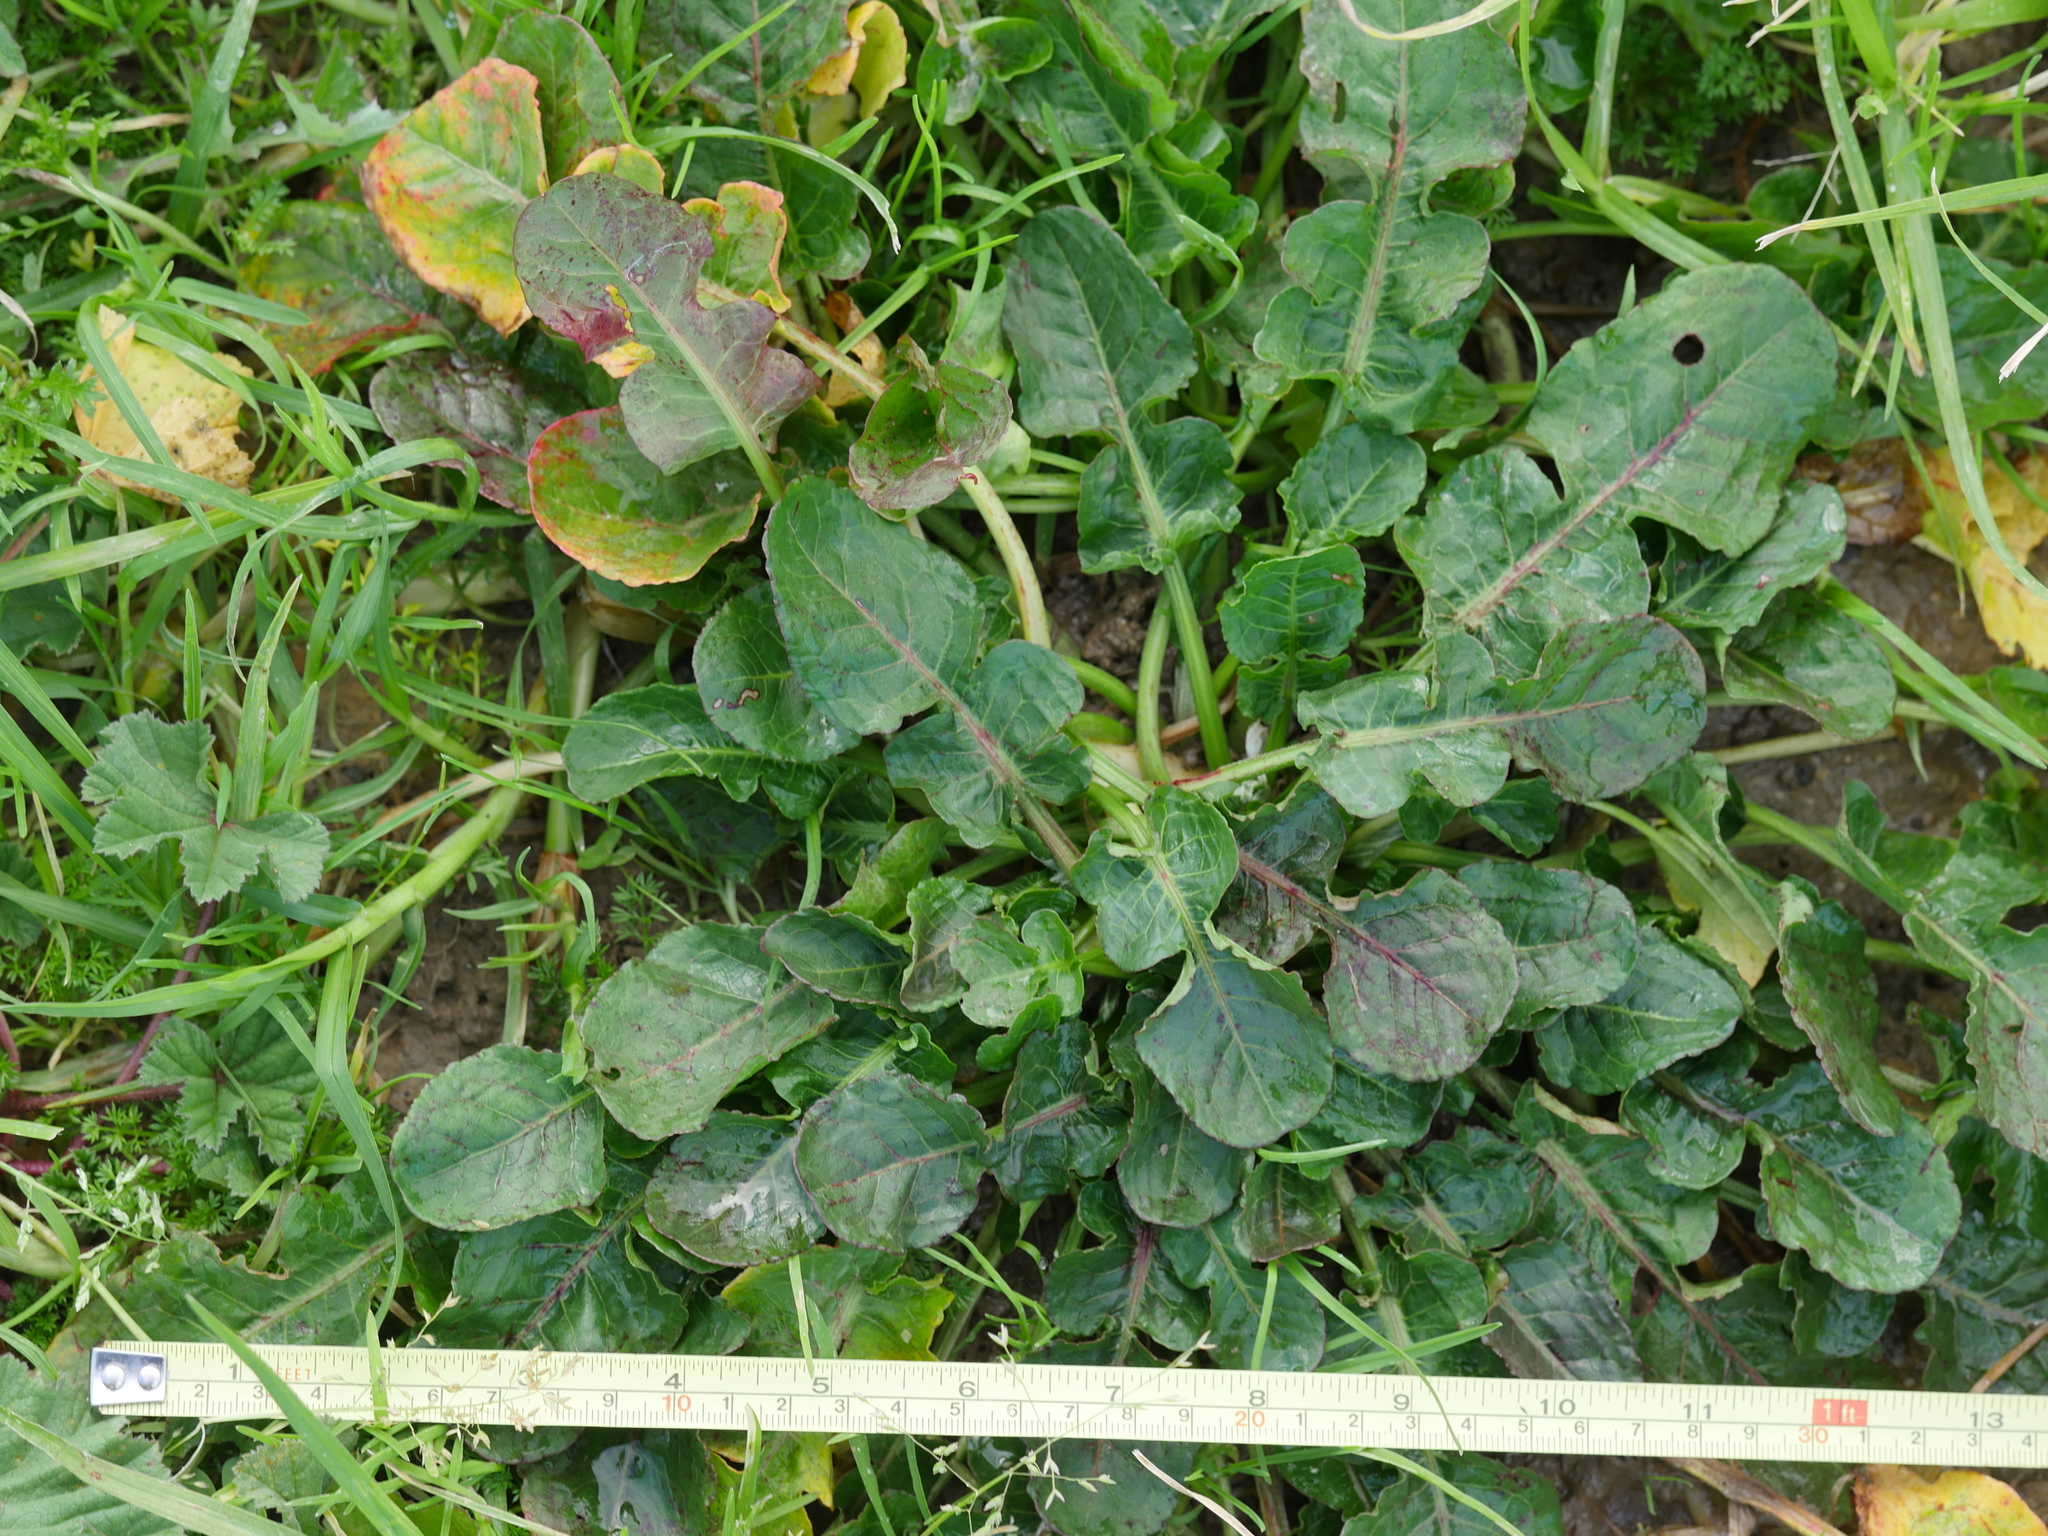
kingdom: Plantae
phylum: Tracheophyta
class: Magnoliopsida
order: Caryophyllales
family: Polygonaceae
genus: Rumex
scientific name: Rumex pulcher
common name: Fiddle dock
